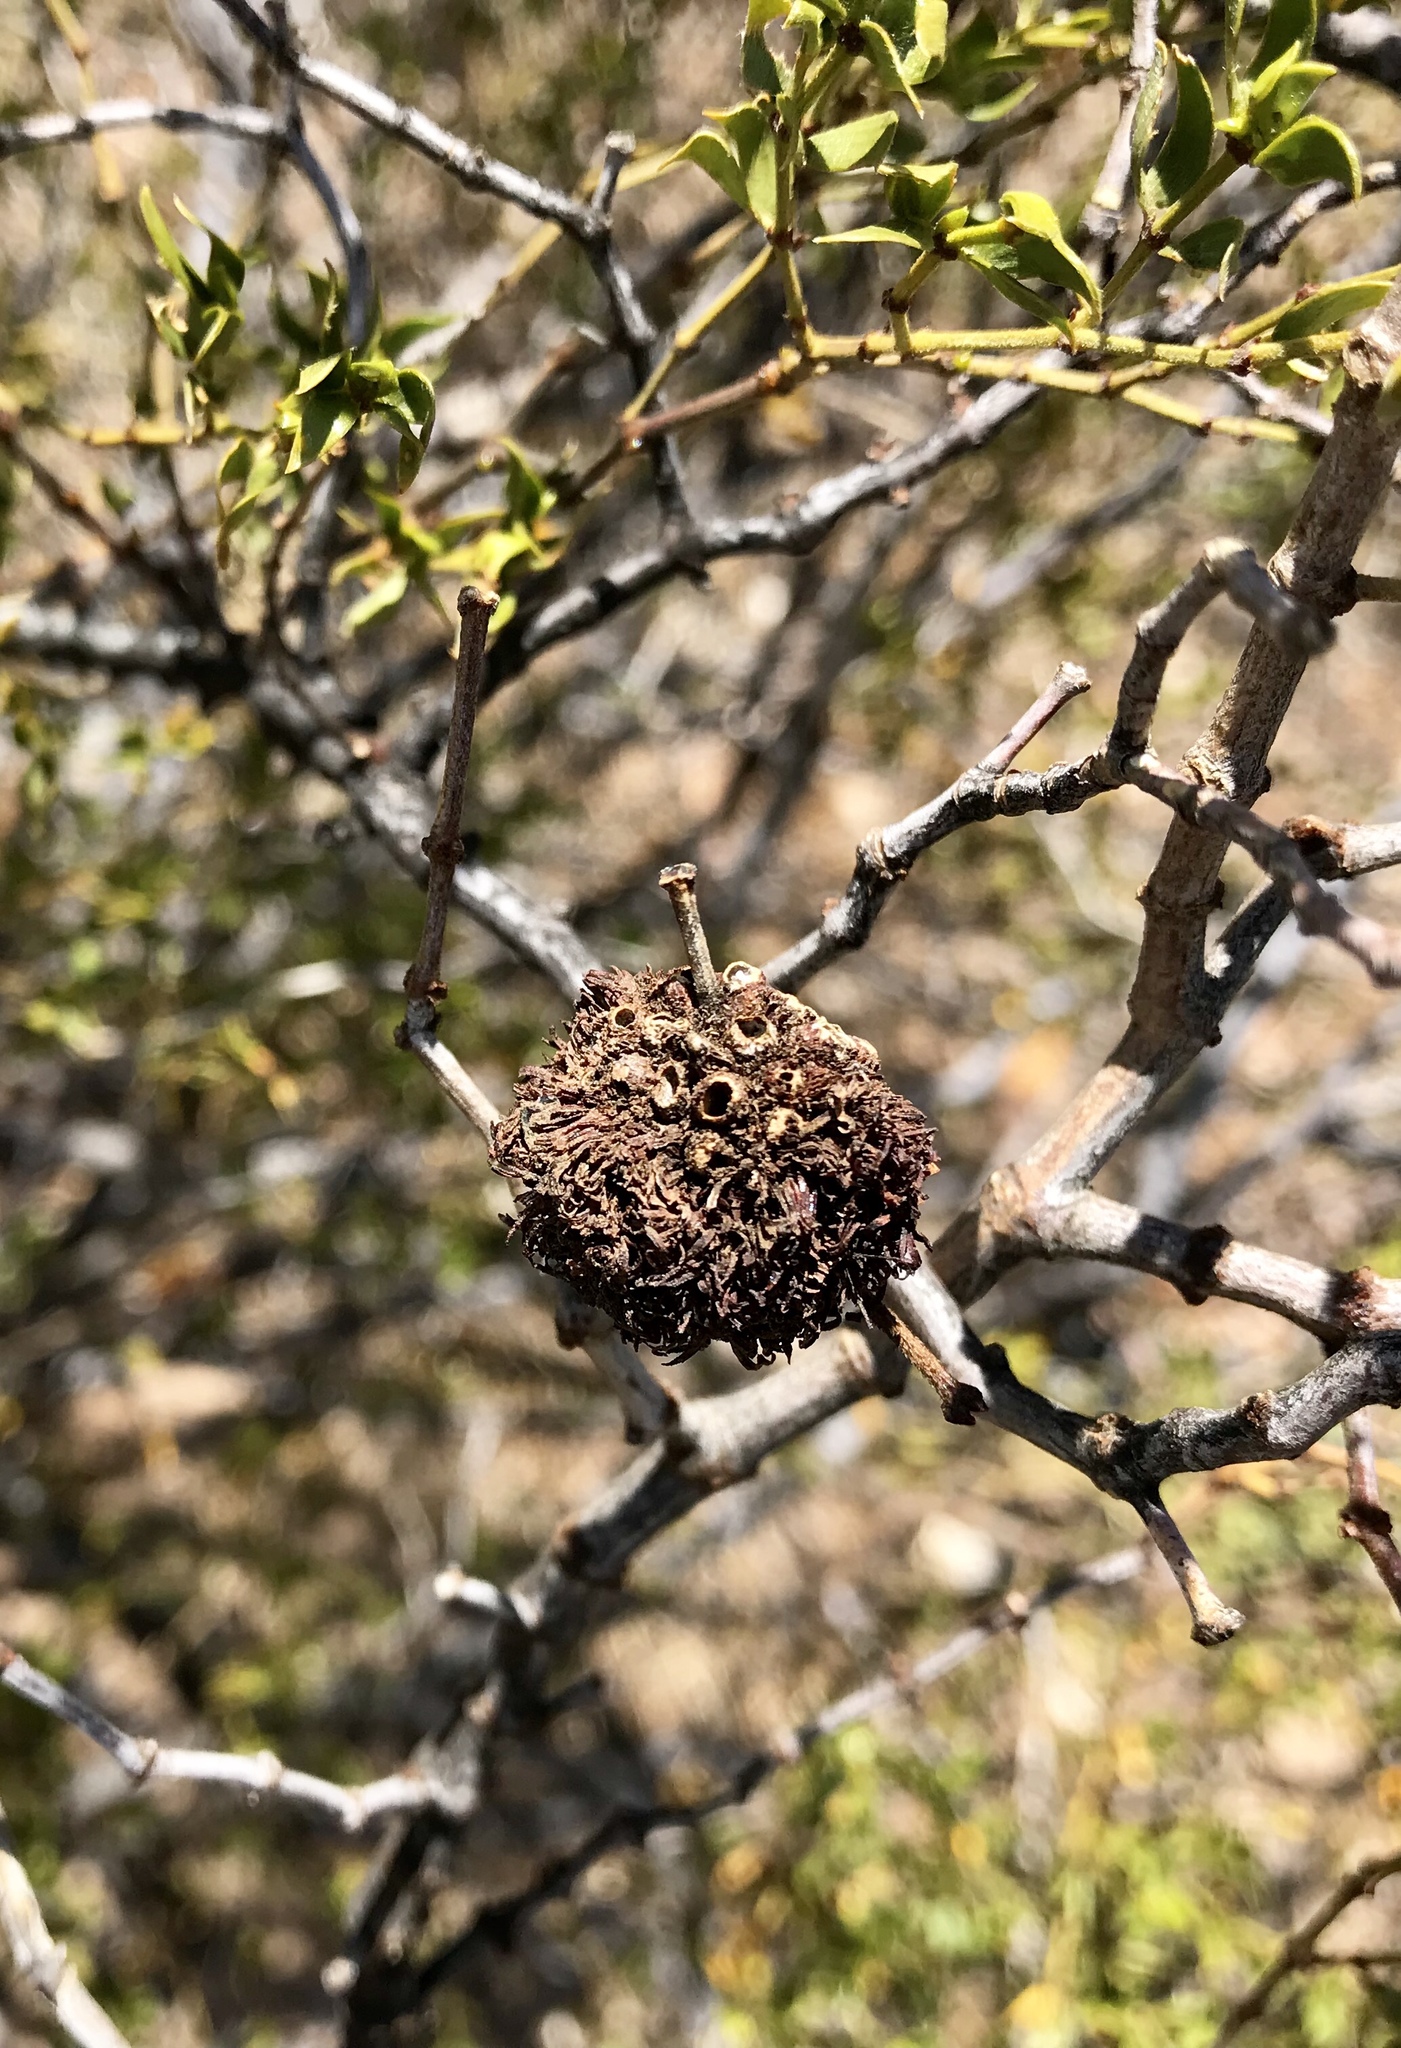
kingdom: Animalia
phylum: Arthropoda
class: Insecta
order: Diptera
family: Cecidomyiidae
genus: Asphondylia
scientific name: Asphondylia auripila
